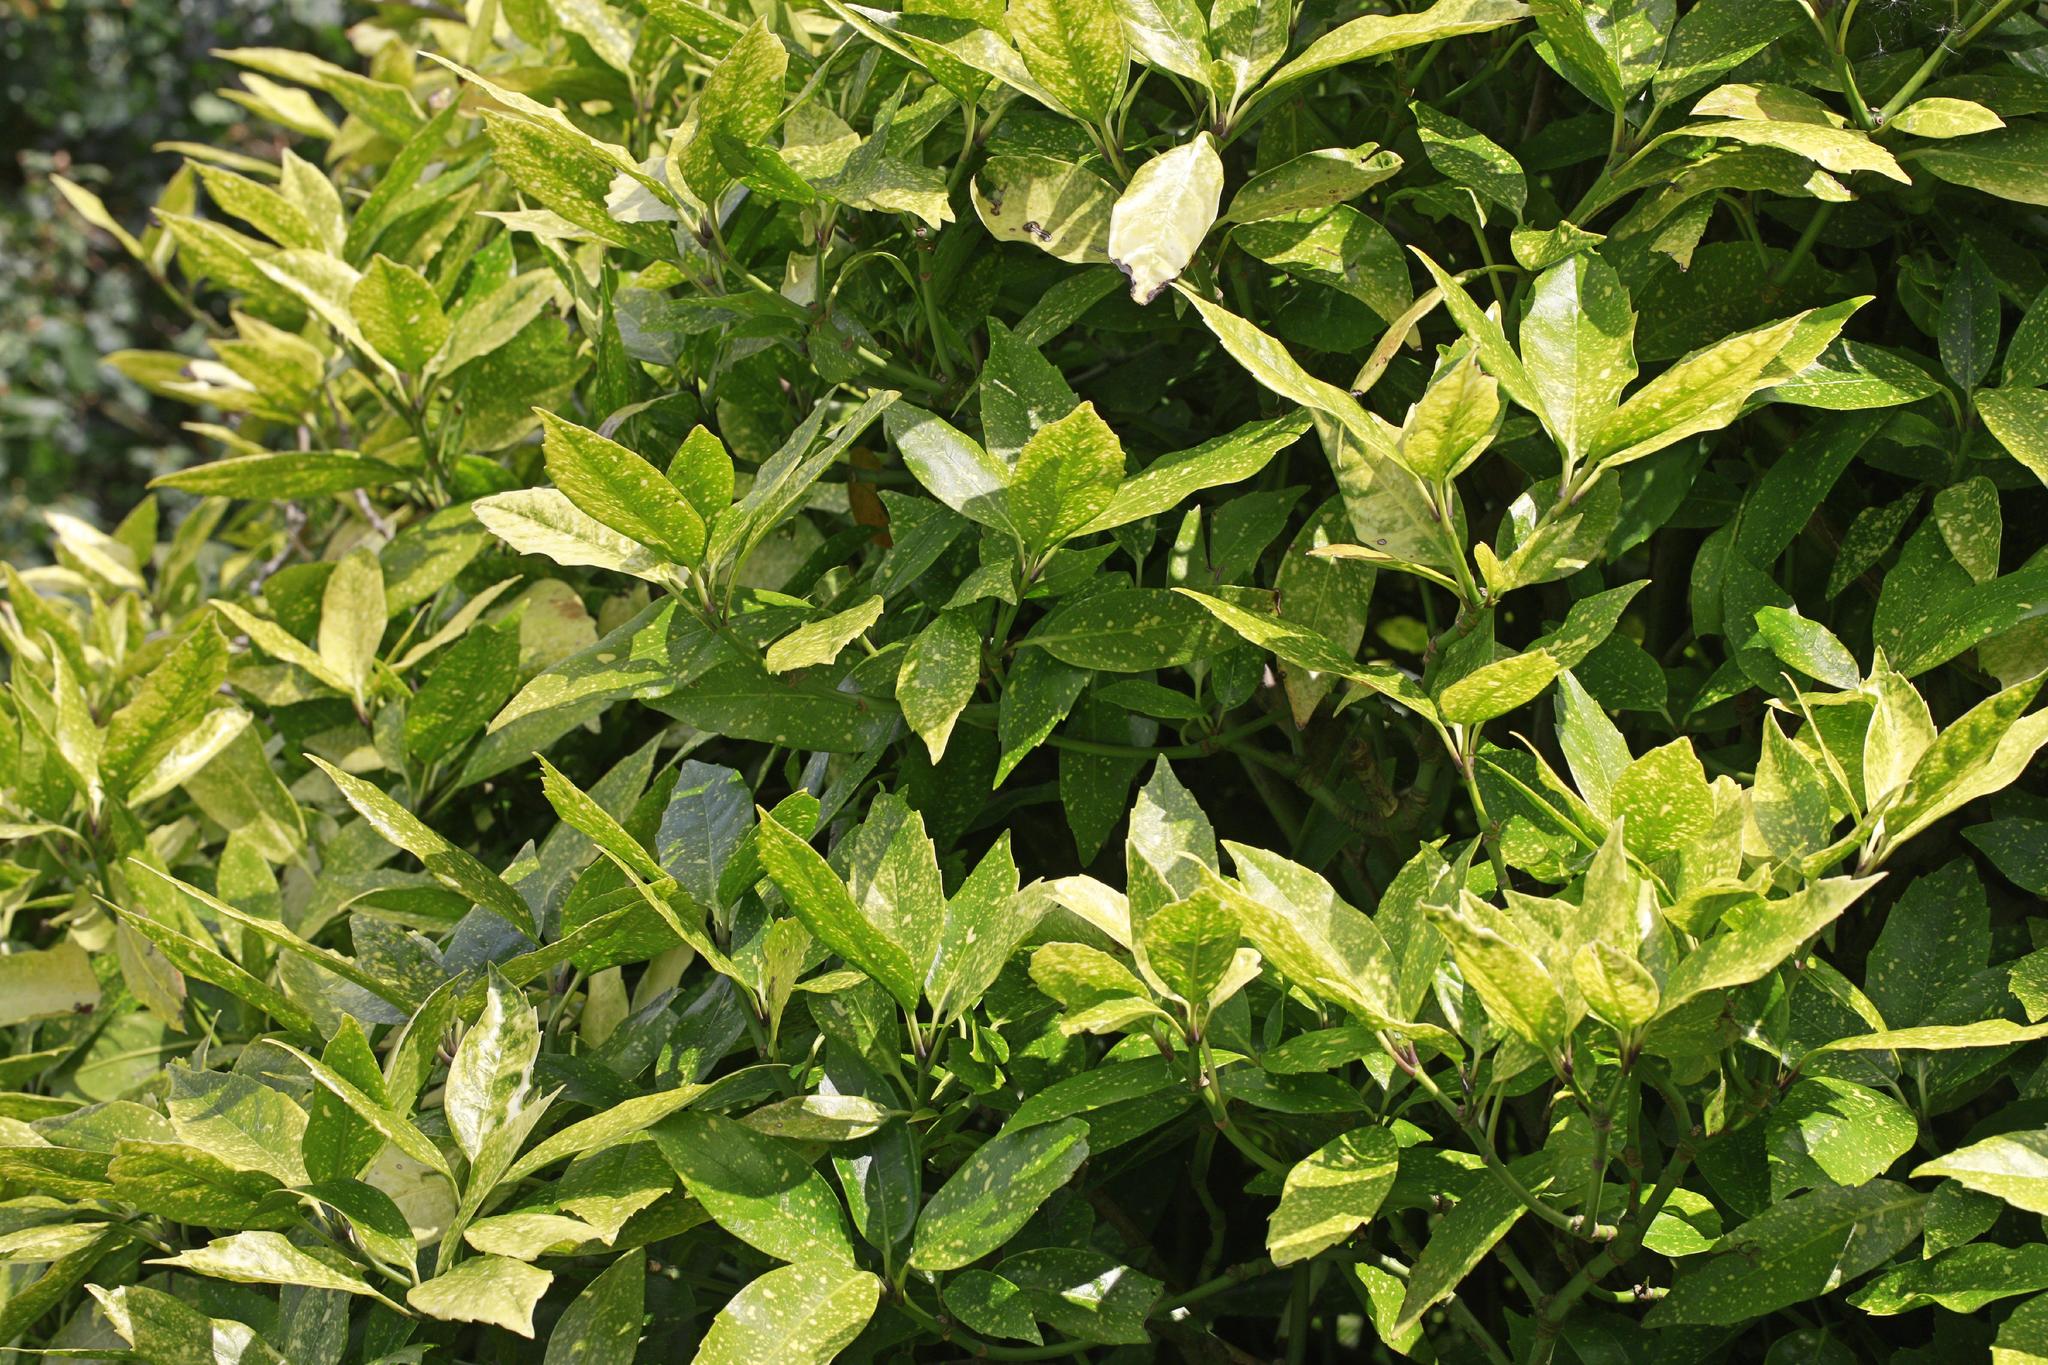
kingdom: Plantae
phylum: Tracheophyta
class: Magnoliopsida
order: Garryales
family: Garryaceae
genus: Aucuba
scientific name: Aucuba japonica
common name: Spotted-laurel
